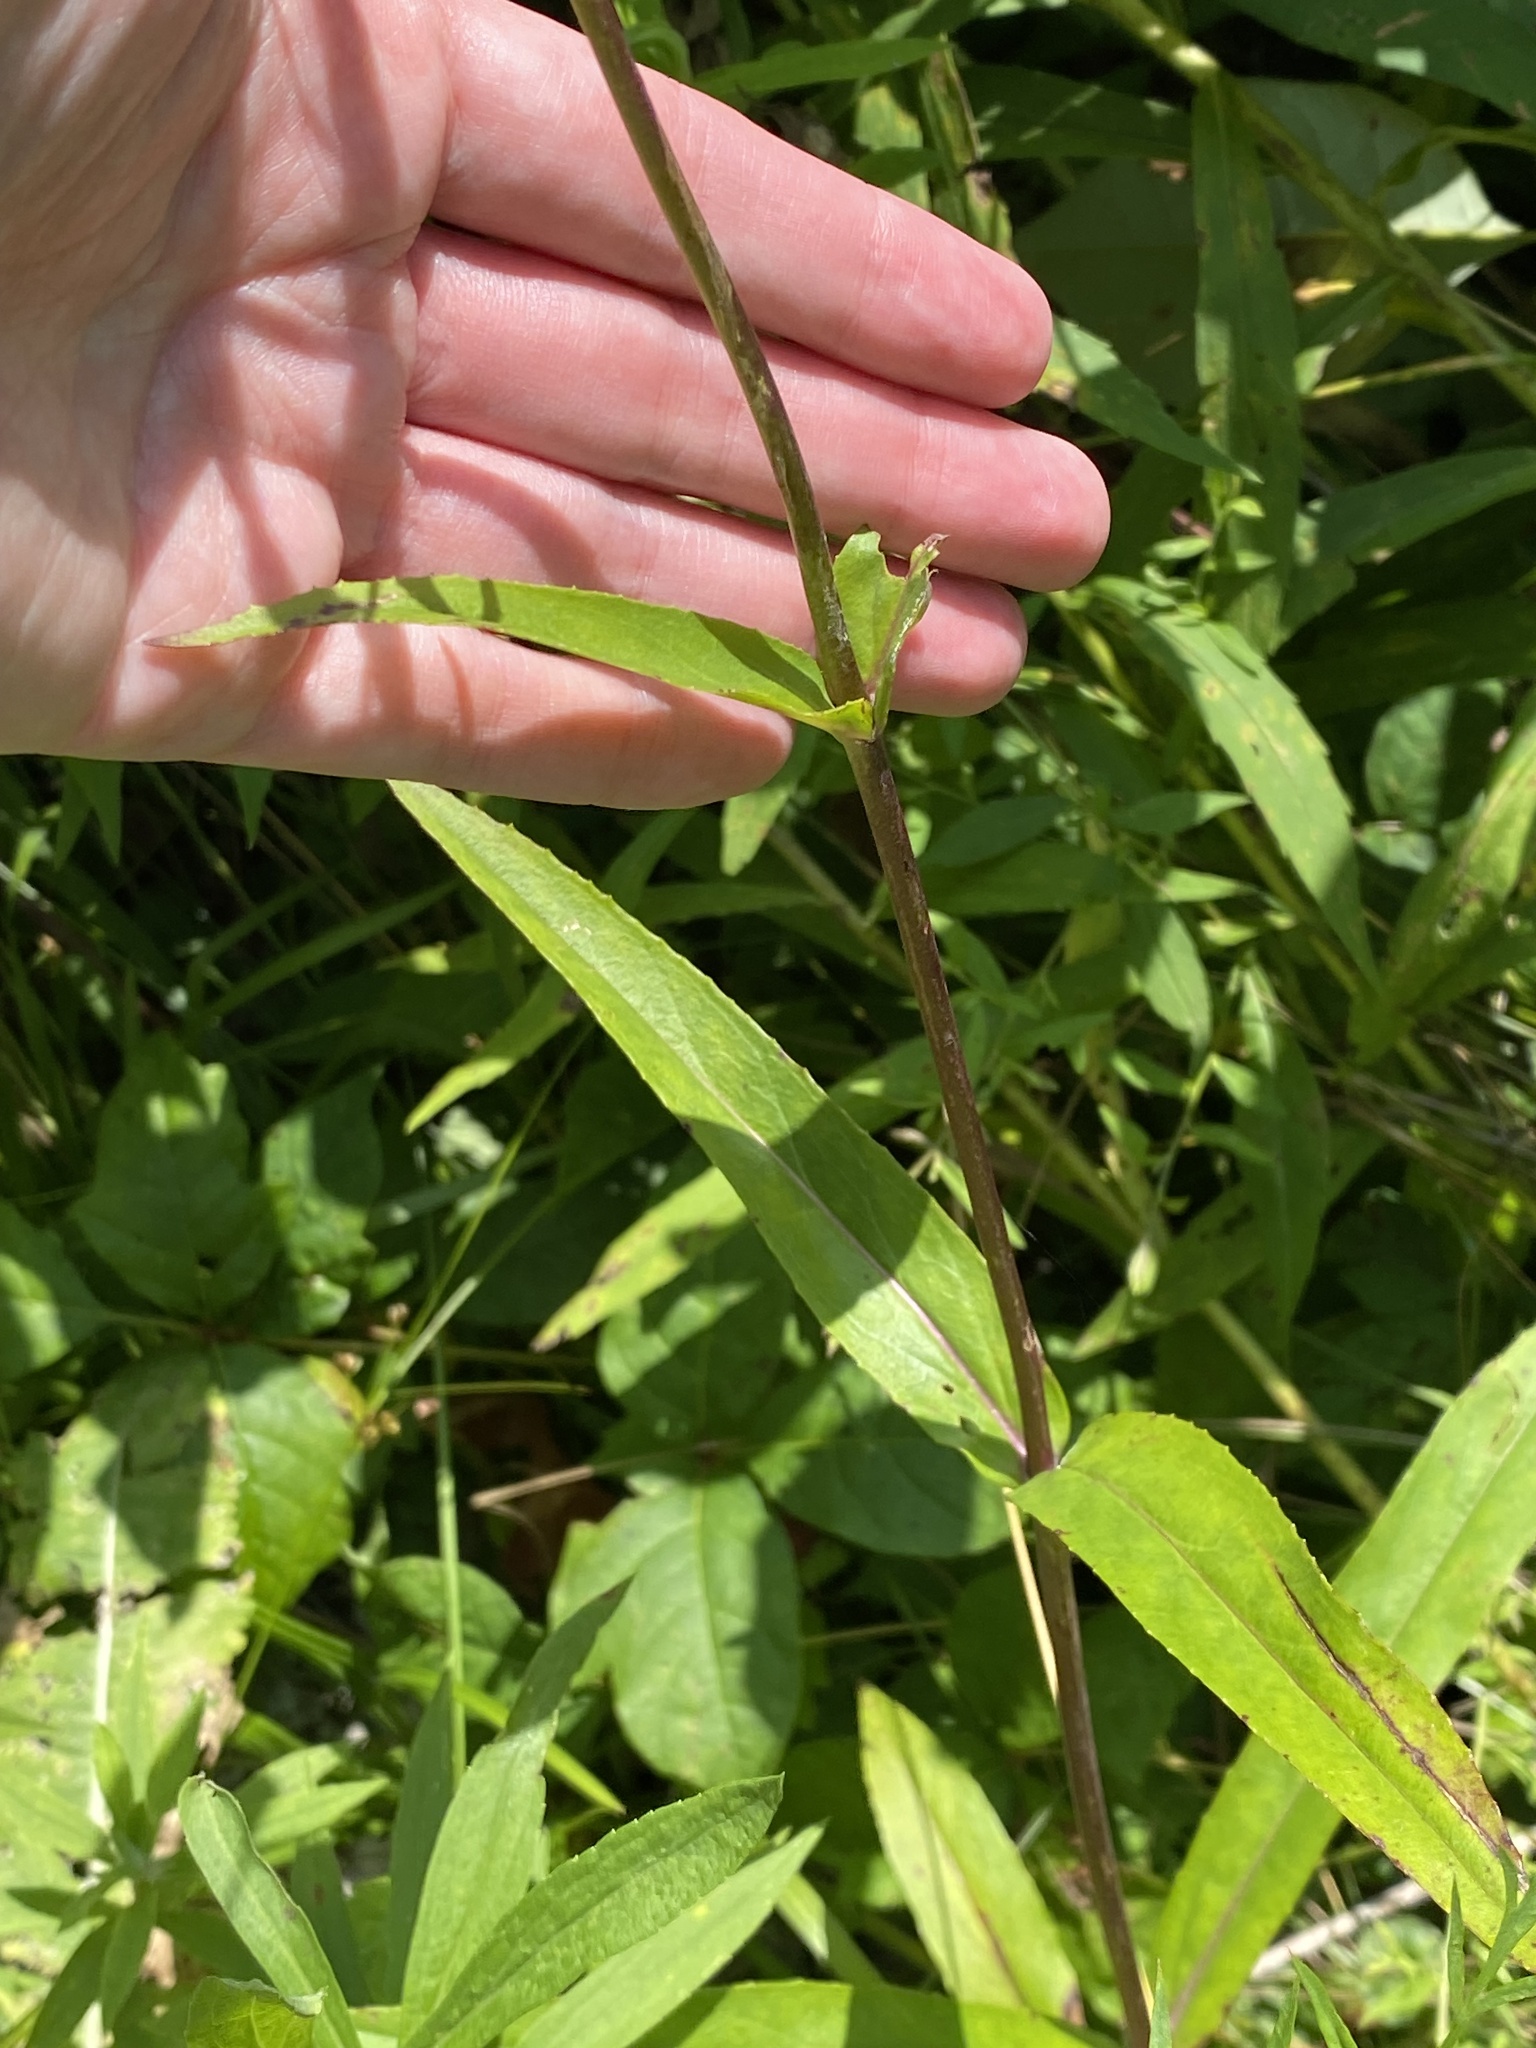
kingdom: Plantae
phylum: Tracheophyta
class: Magnoliopsida
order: Lamiales
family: Plantaginaceae
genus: Penstemon
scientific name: Penstemon digitalis
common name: Foxglove beardtongue
